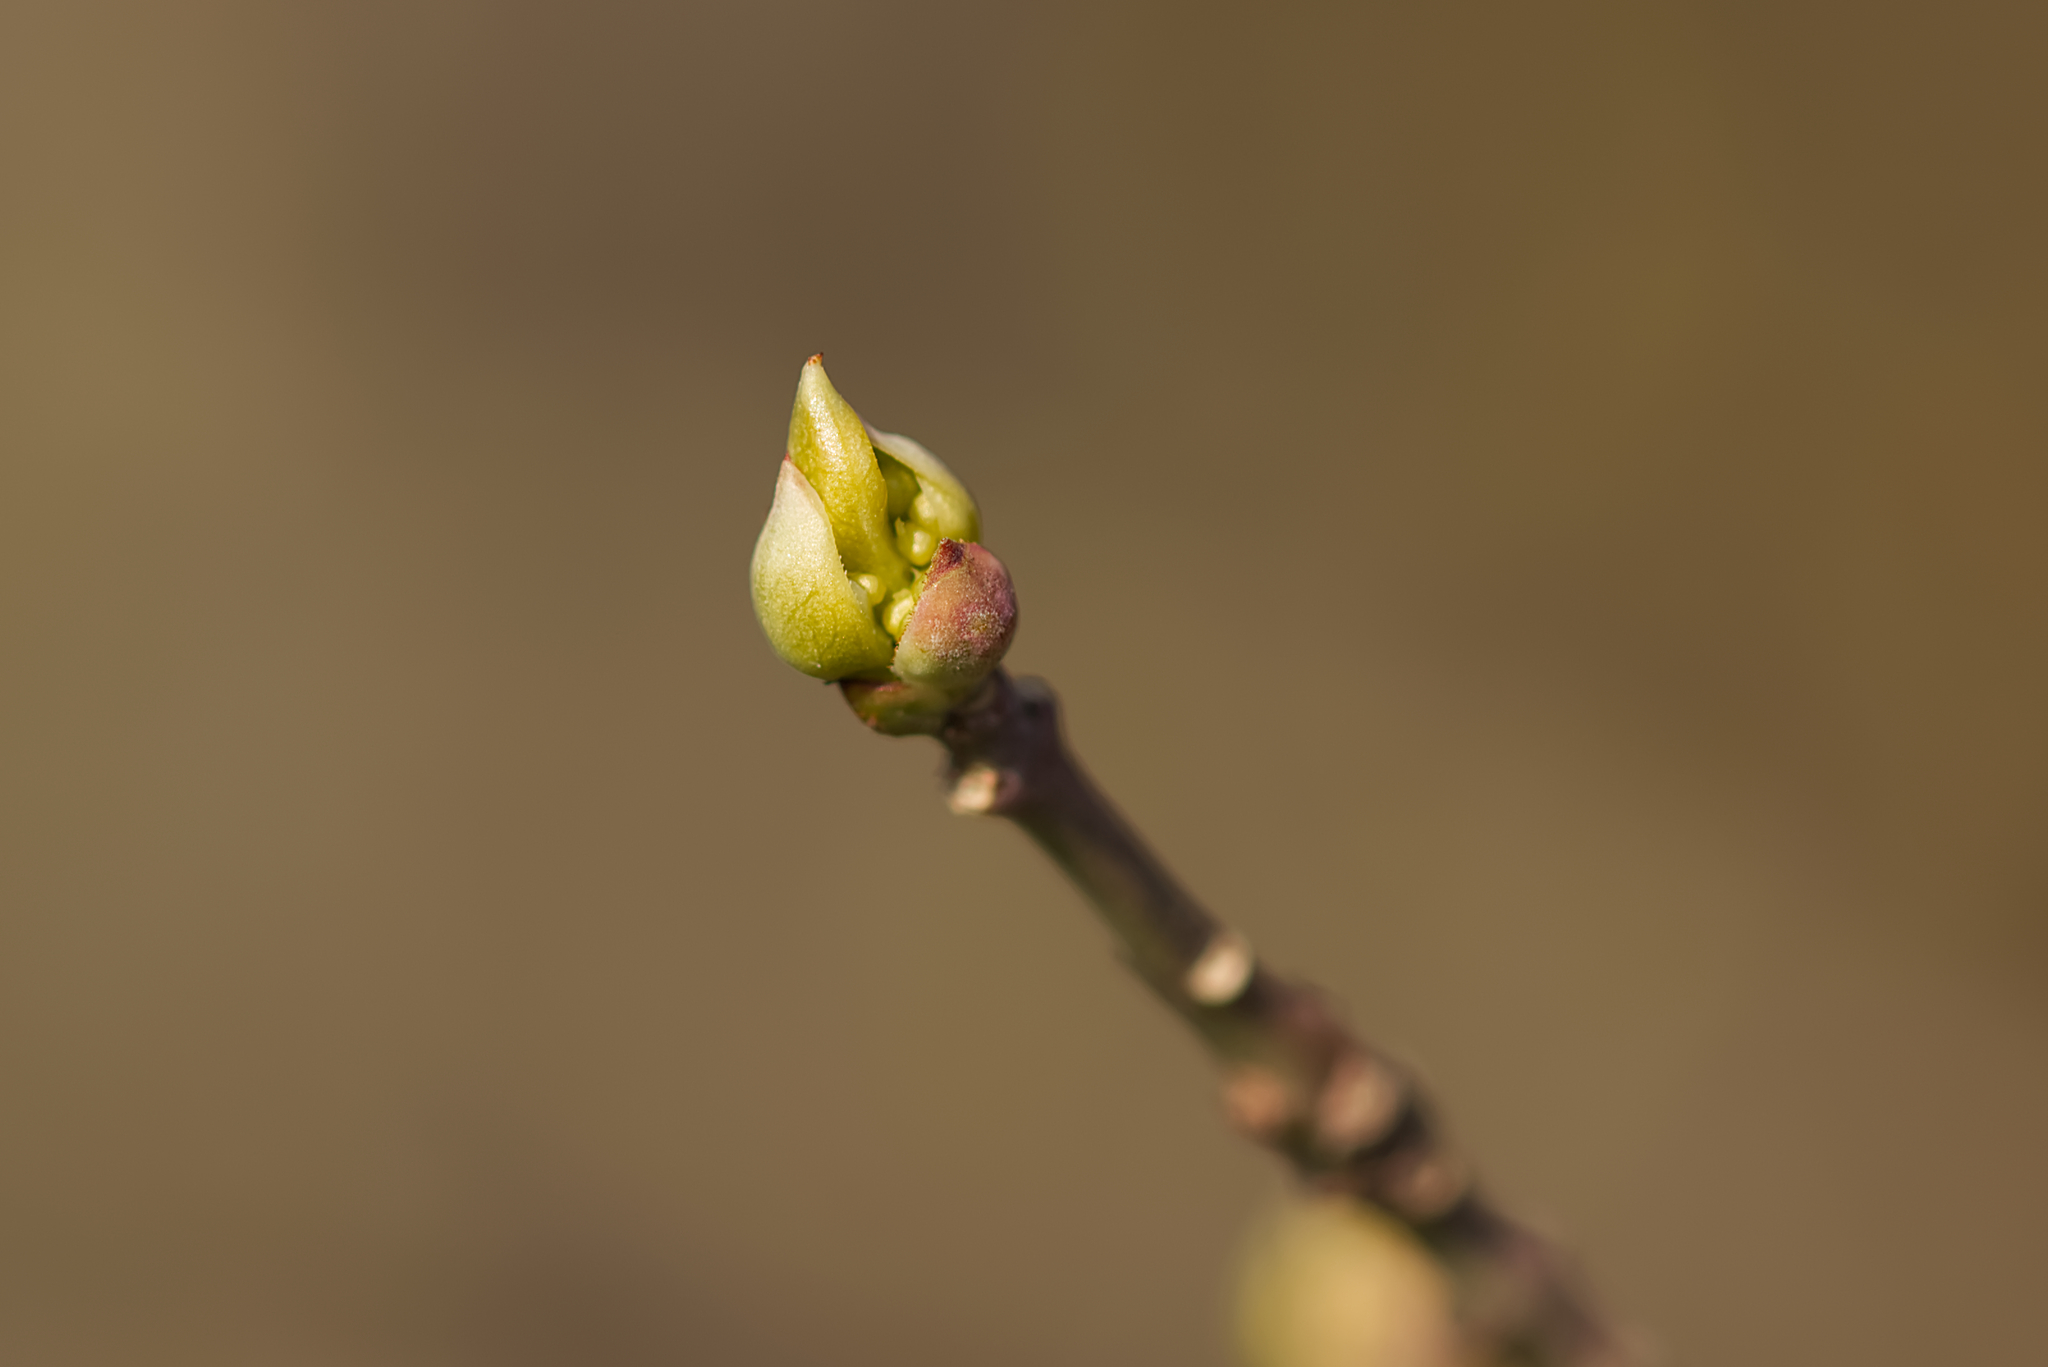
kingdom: Plantae
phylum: Tracheophyta
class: Magnoliopsida
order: Celastrales
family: Celastraceae
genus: Euonymus
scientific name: Euonymus europaeus
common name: Spindle
